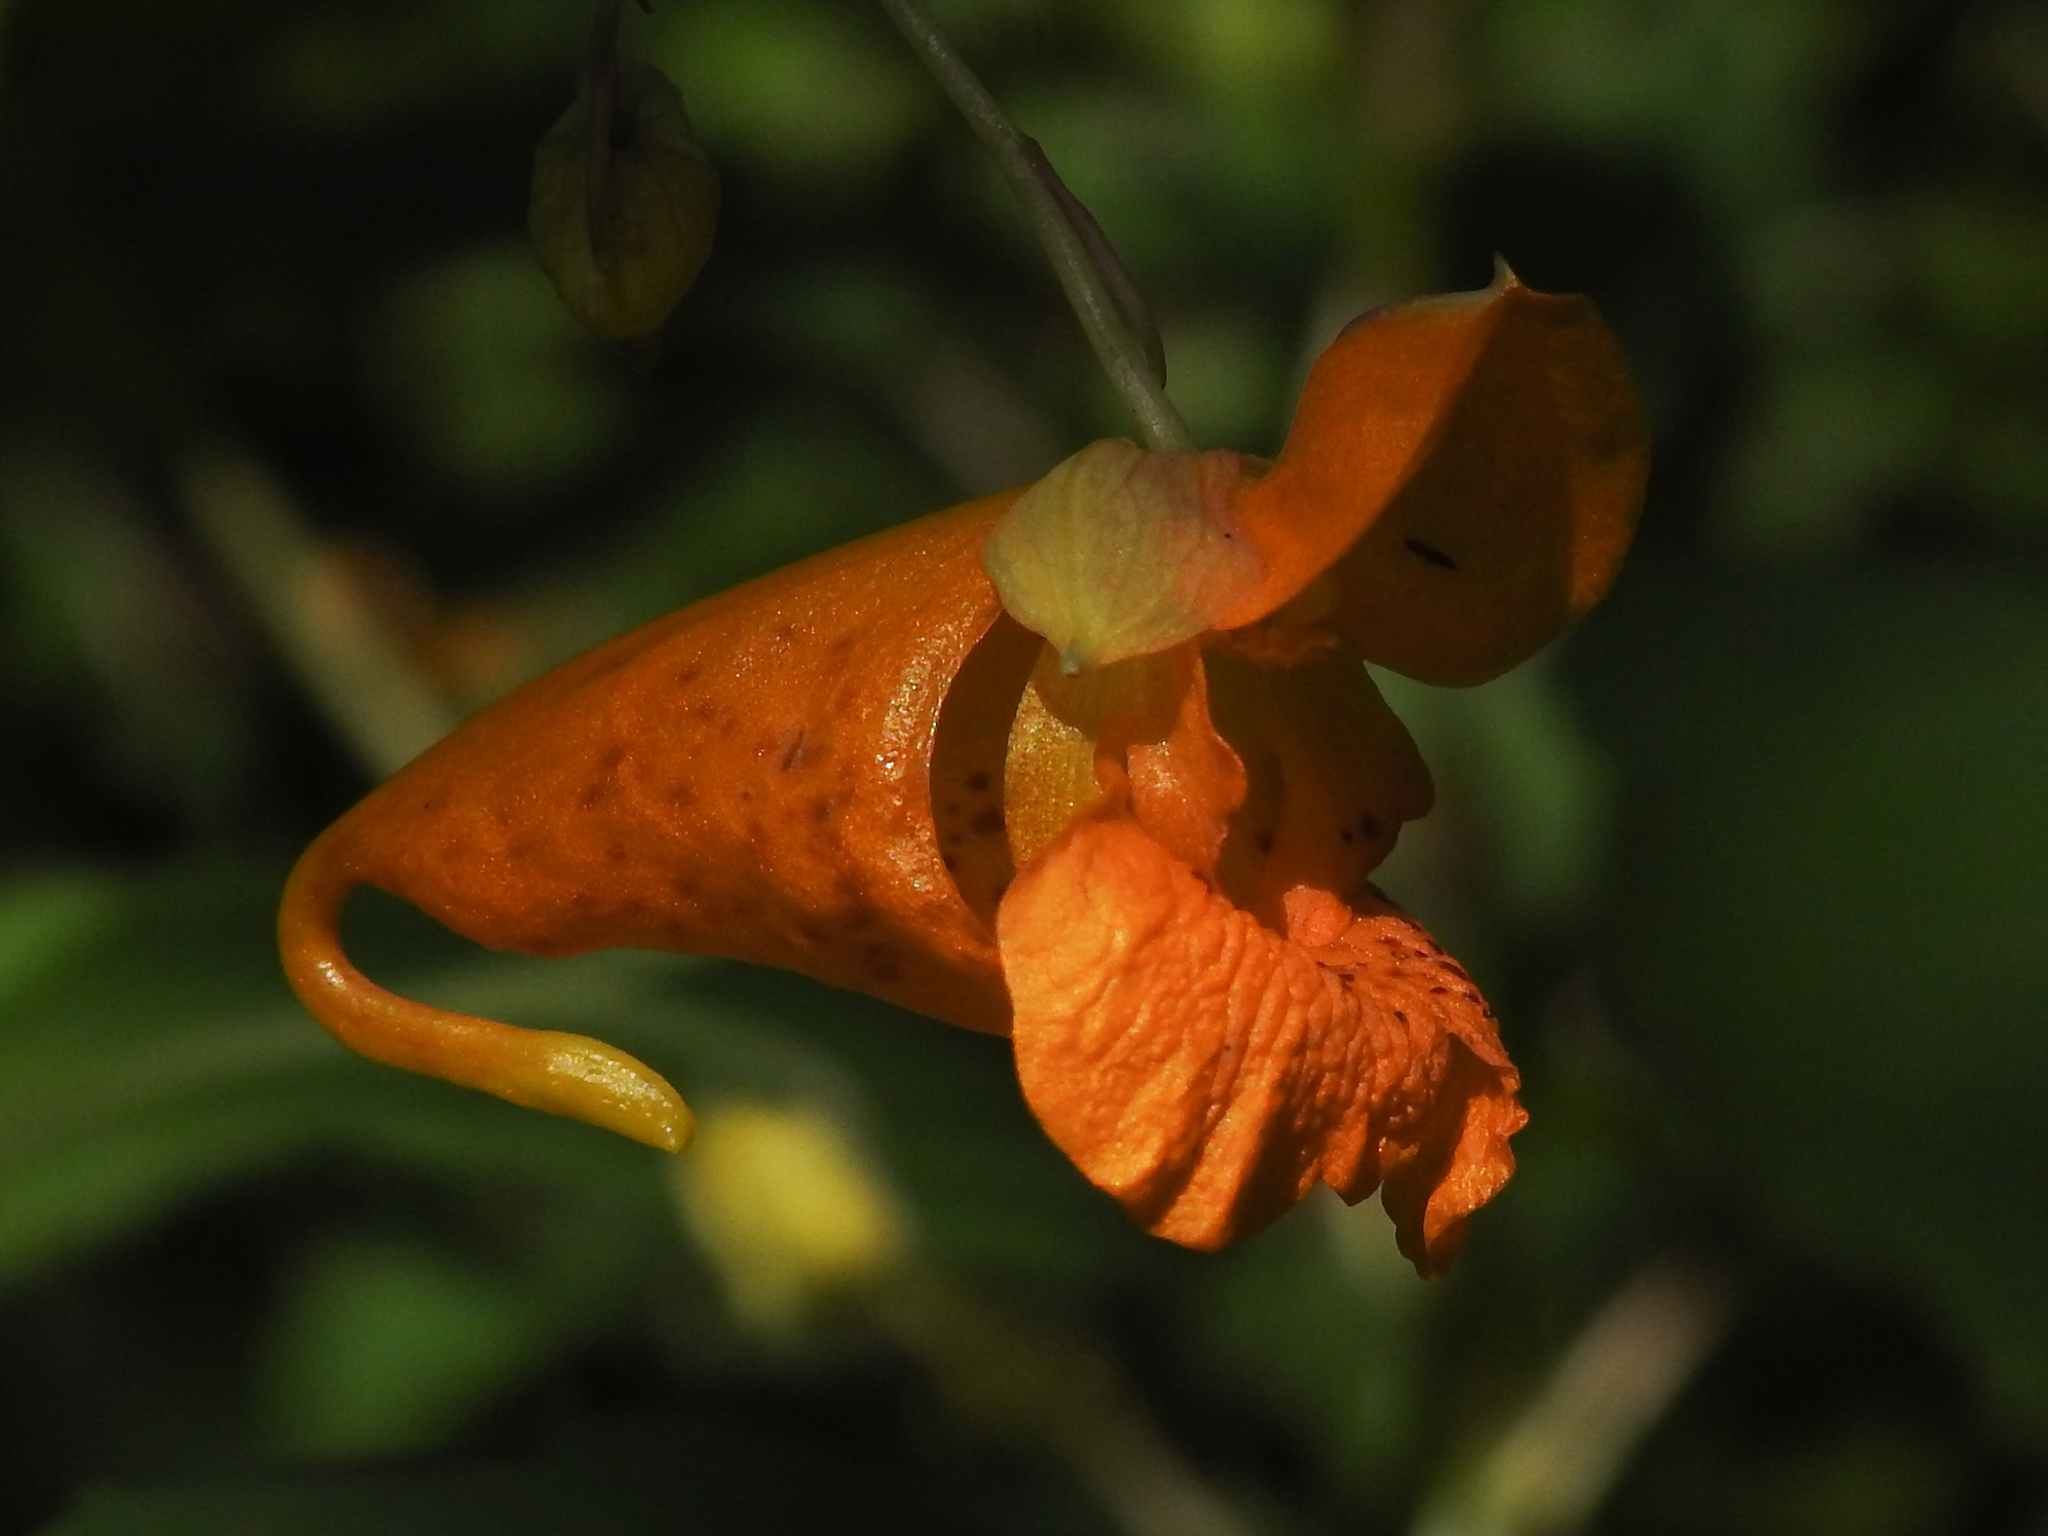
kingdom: Plantae
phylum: Tracheophyta
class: Magnoliopsida
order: Ericales
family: Balsaminaceae
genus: Impatiens
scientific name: Impatiens capensis
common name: Orange balsam
